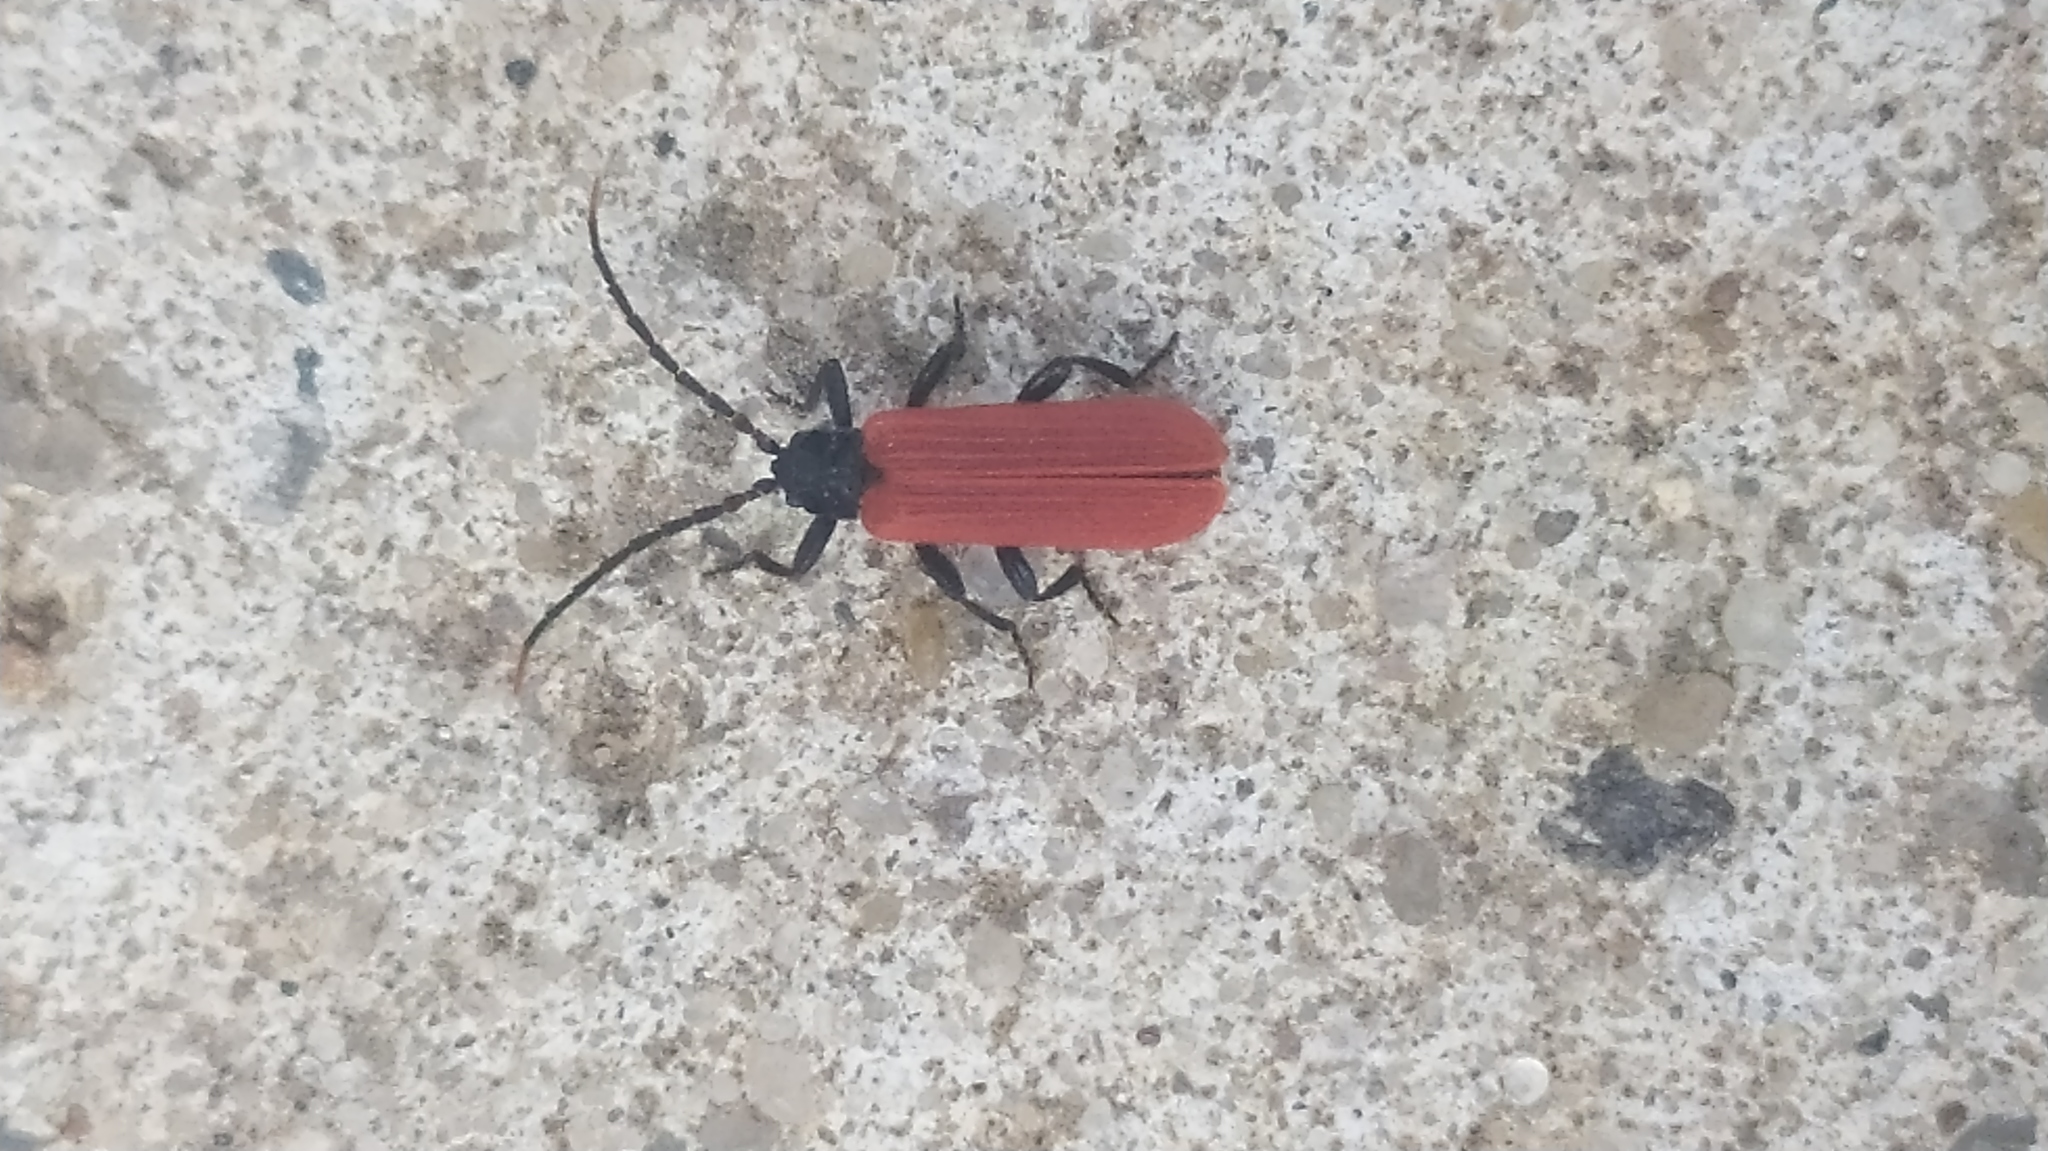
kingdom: Animalia
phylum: Arthropoda
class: Insecta
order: Coleoptera
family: Lycidae
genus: Platycis
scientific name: Platycis minutus
